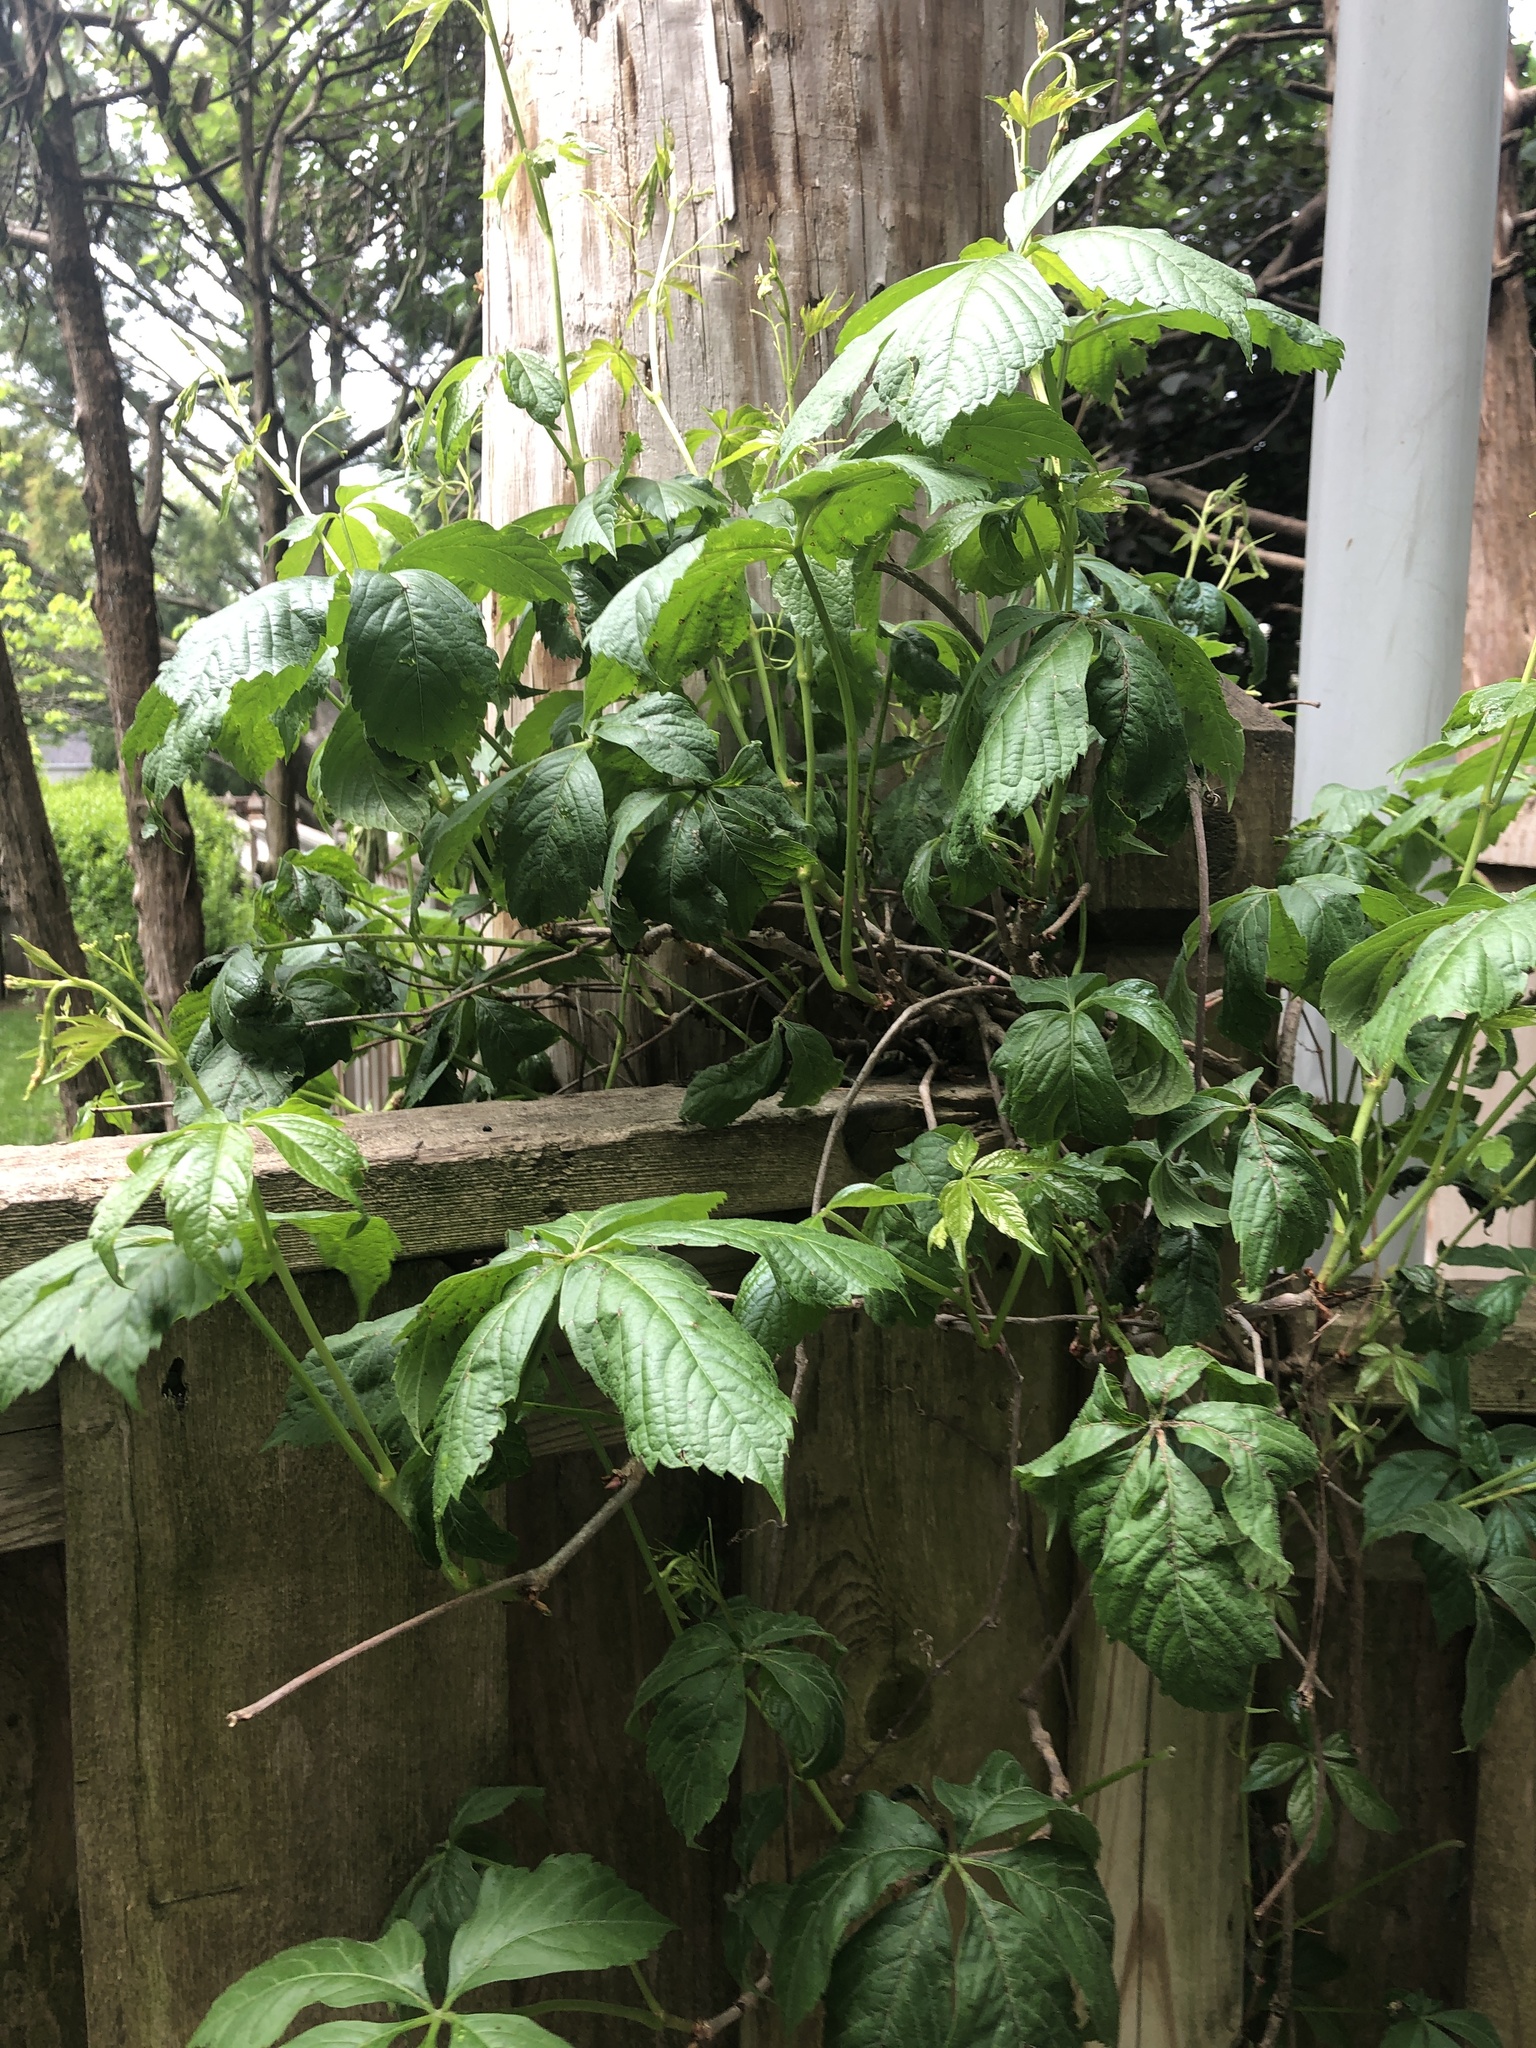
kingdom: Plantae
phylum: Tracheophyta
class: Magnoliopsida
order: Vitales
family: Vitaceae
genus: Parthenocissus
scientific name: Parthenocissus quinquefolia
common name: Virginia-creeper
